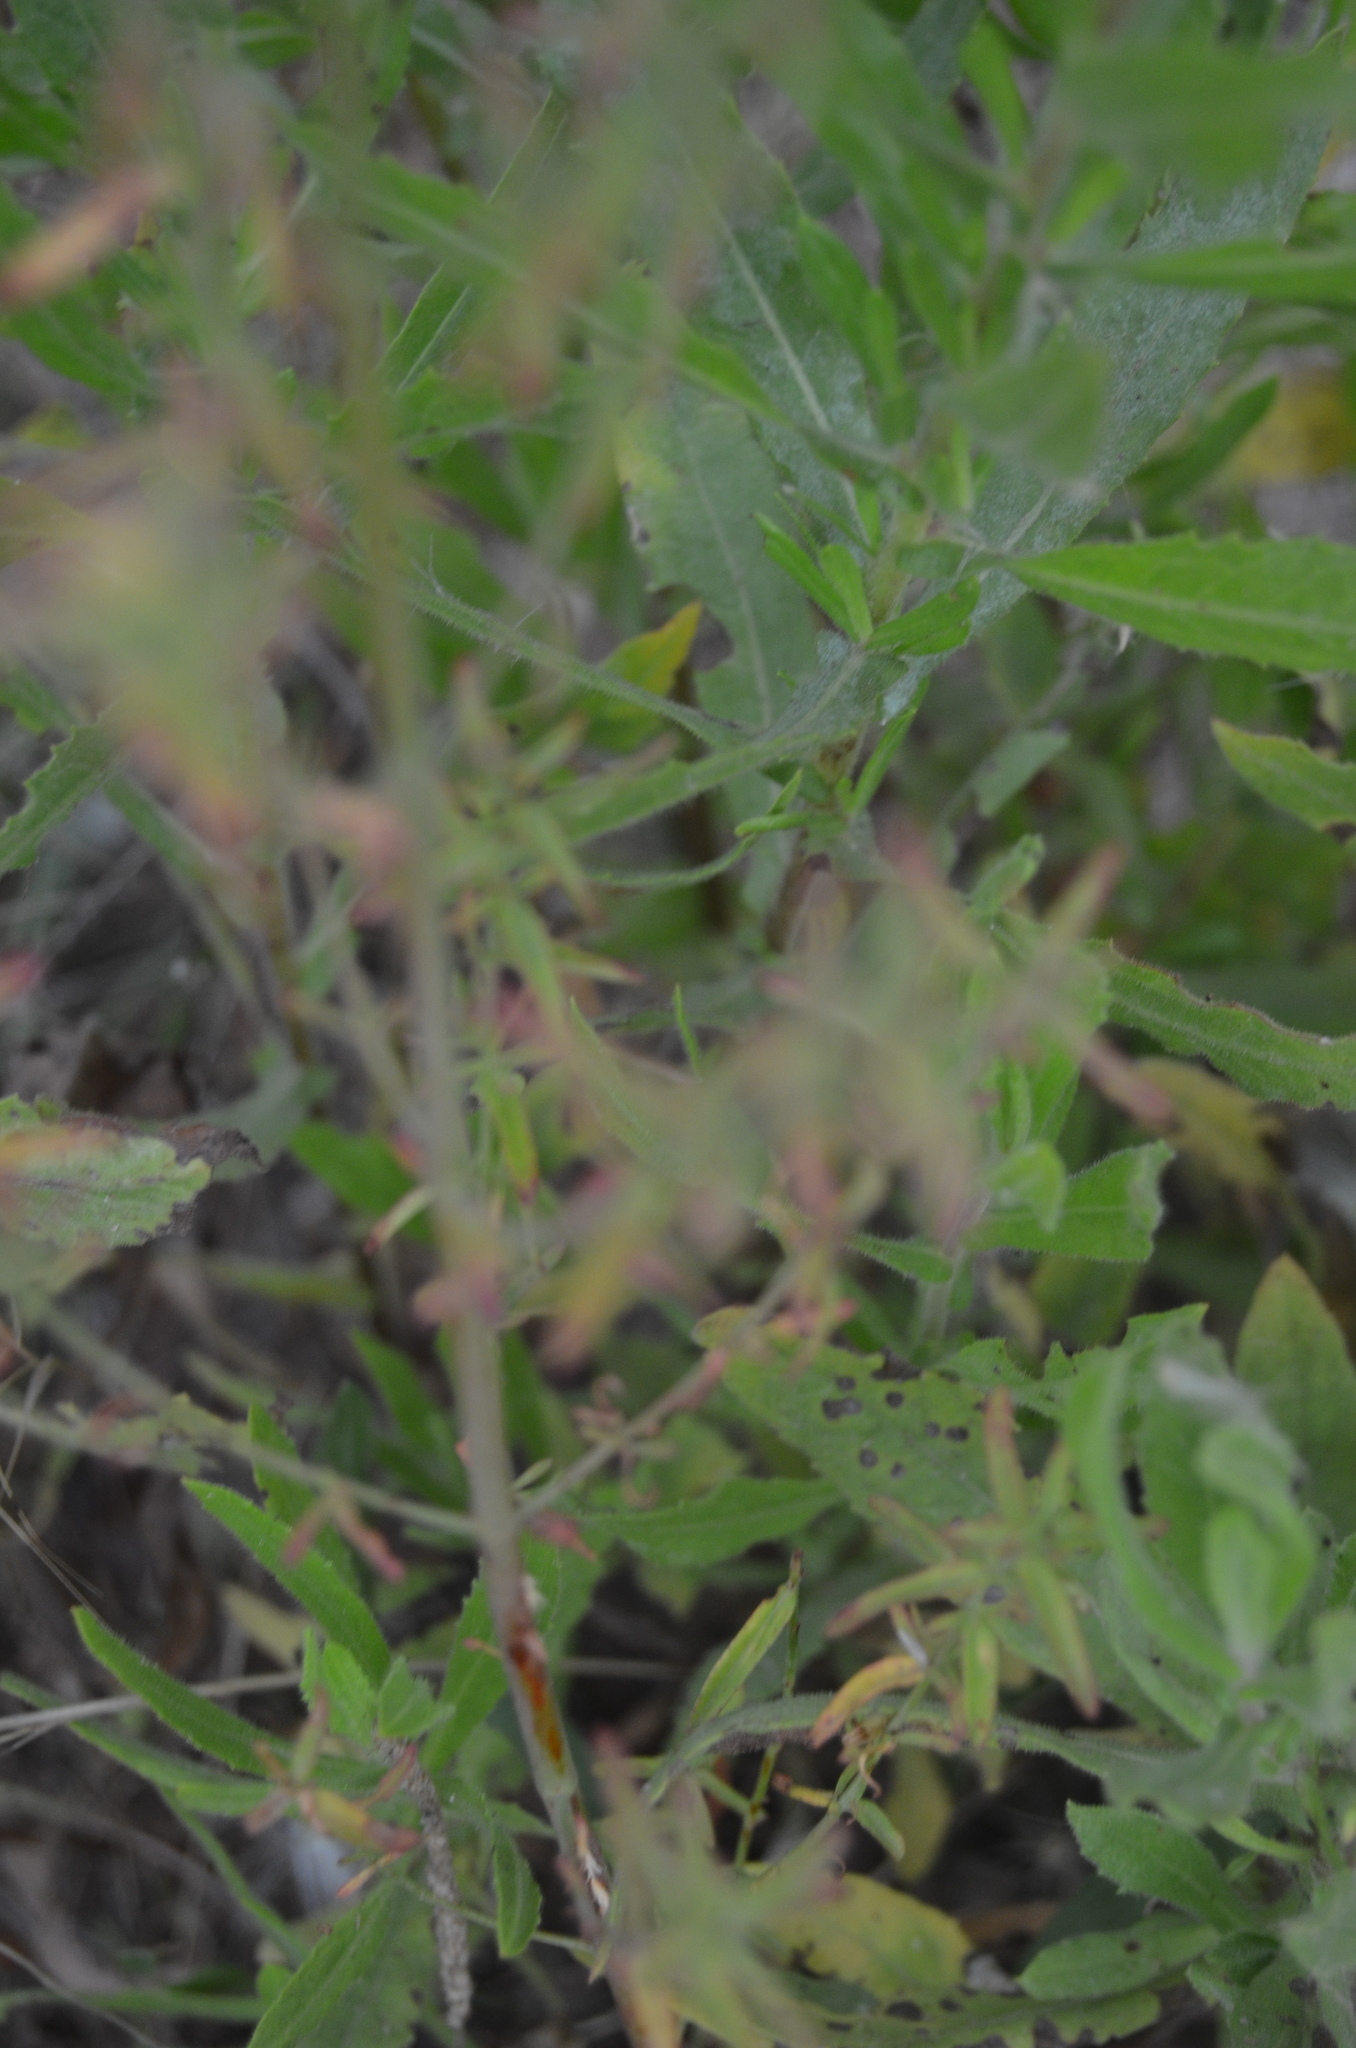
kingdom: Plantae
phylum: Tracheophyta
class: Magnoliopsida
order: Malpighiales
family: Hypericaceae
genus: Hypericum
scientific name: Hypericum perforatum
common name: Common st. johnswort
